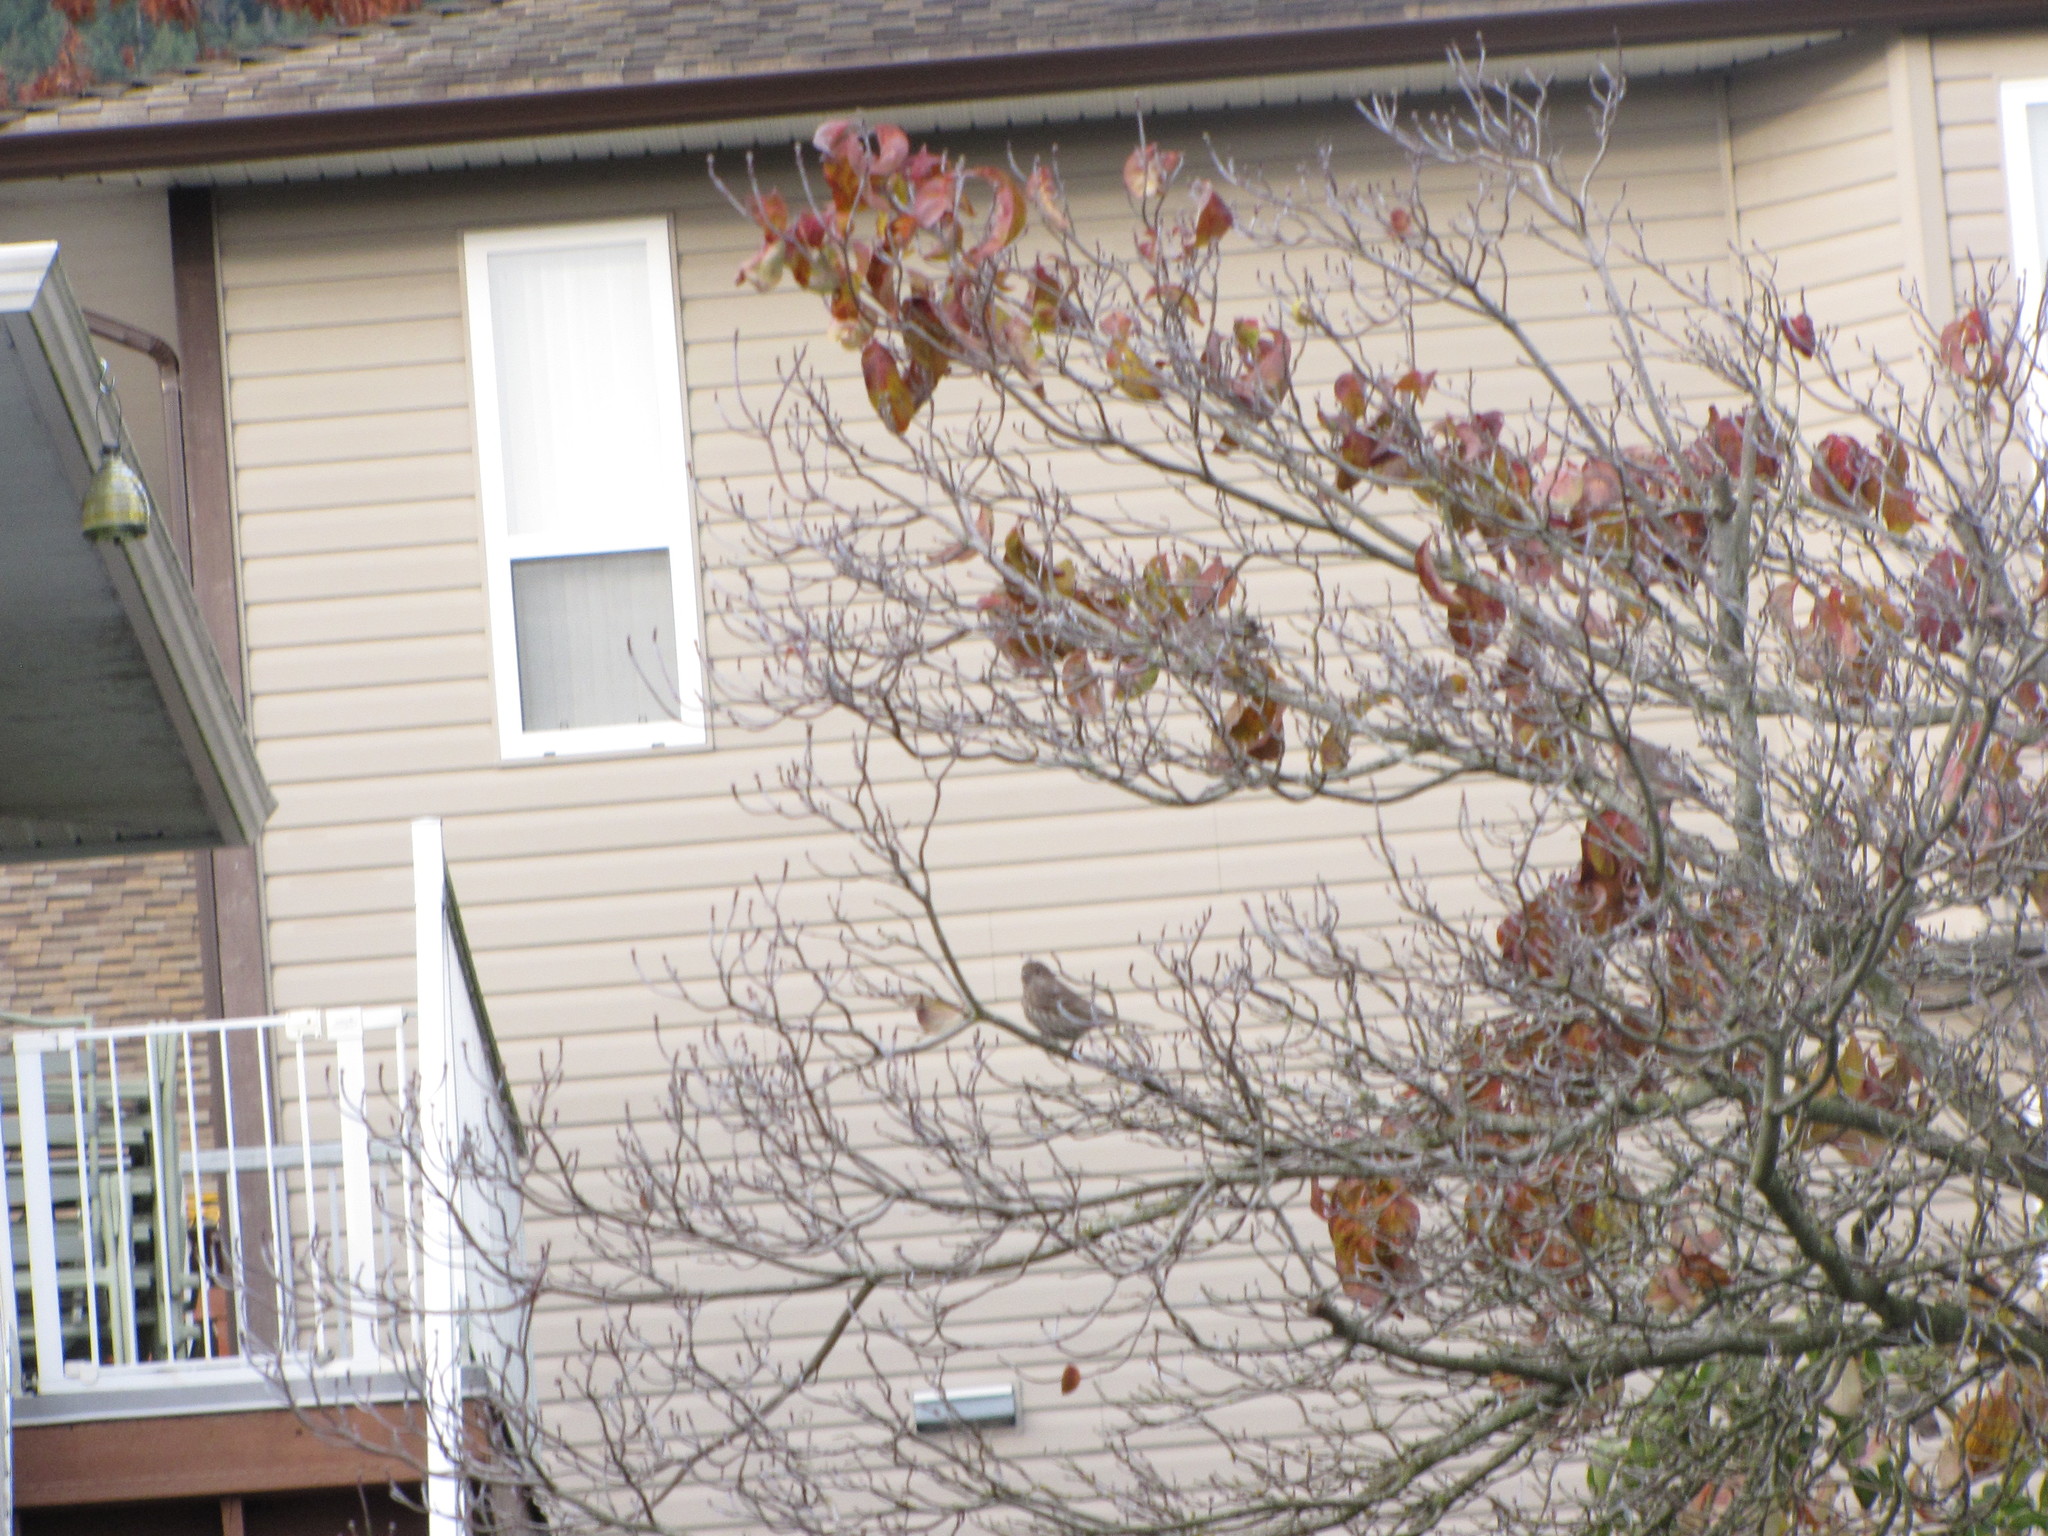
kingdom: Animalia
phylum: Chordata
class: Aves
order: Passeriformes
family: Fringillidae
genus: Haemorhous
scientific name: Haemorhous mexicanus
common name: House finch
